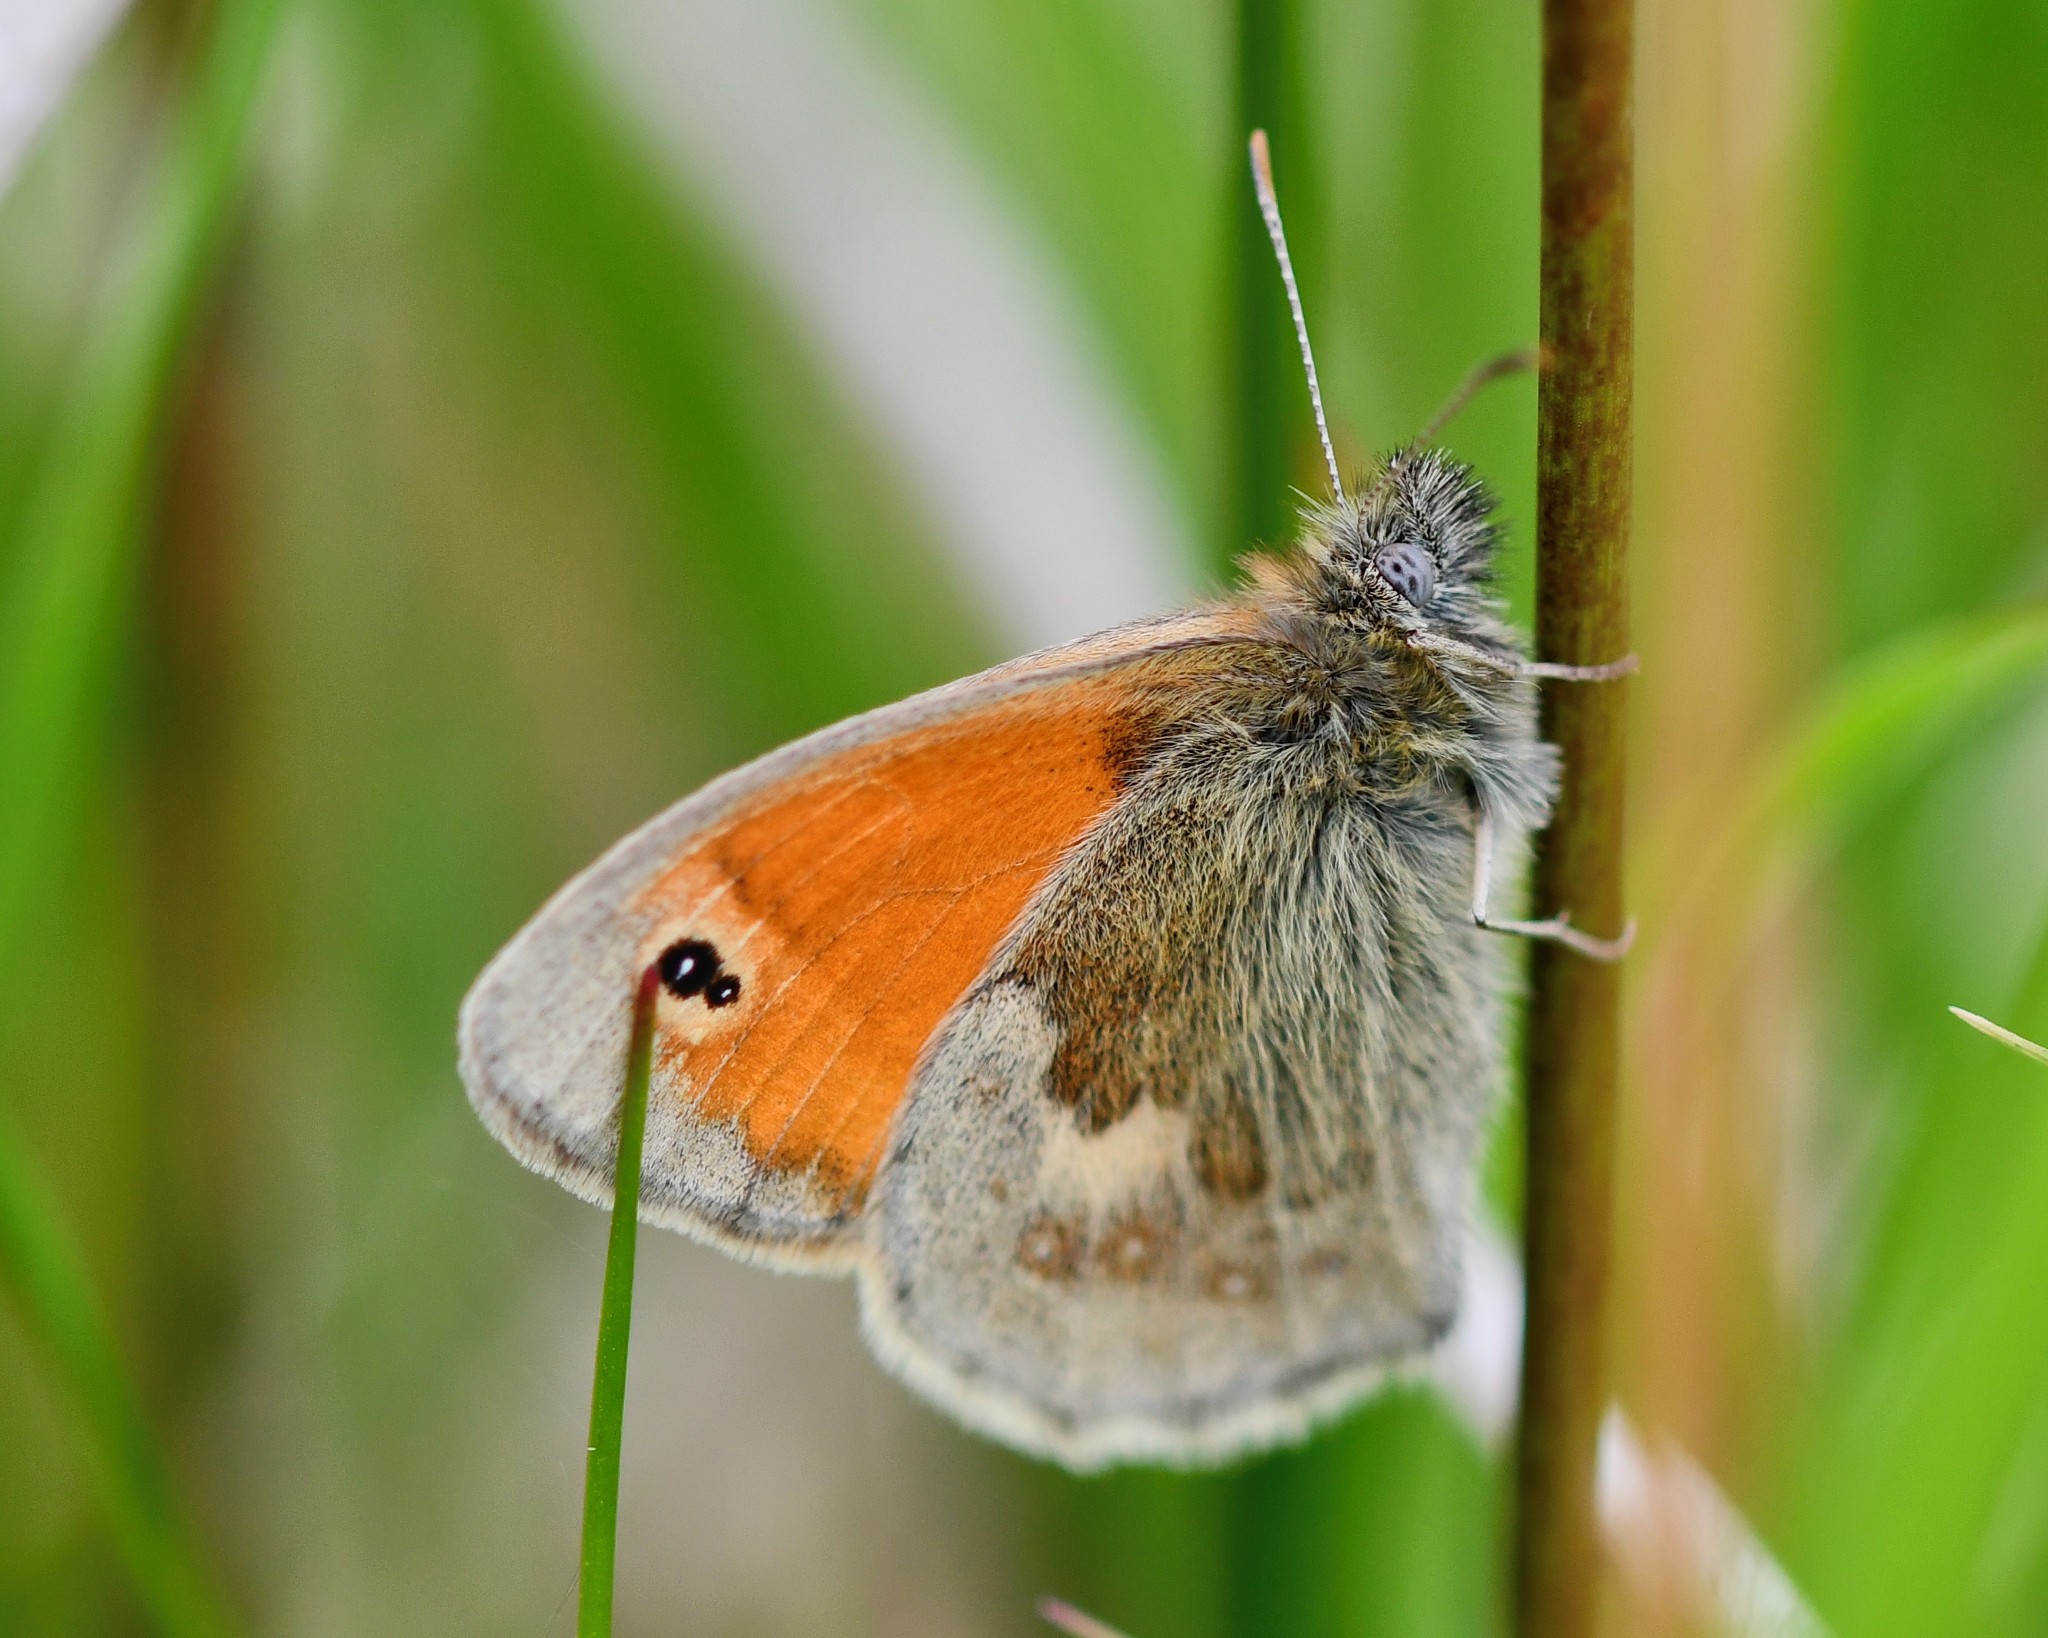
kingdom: Animalia
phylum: Arthropoda
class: Insecta
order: Lepidoptera
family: Nymphalidae
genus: Coenonympha
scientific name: Coenonympha pamphilus
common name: Small heath
